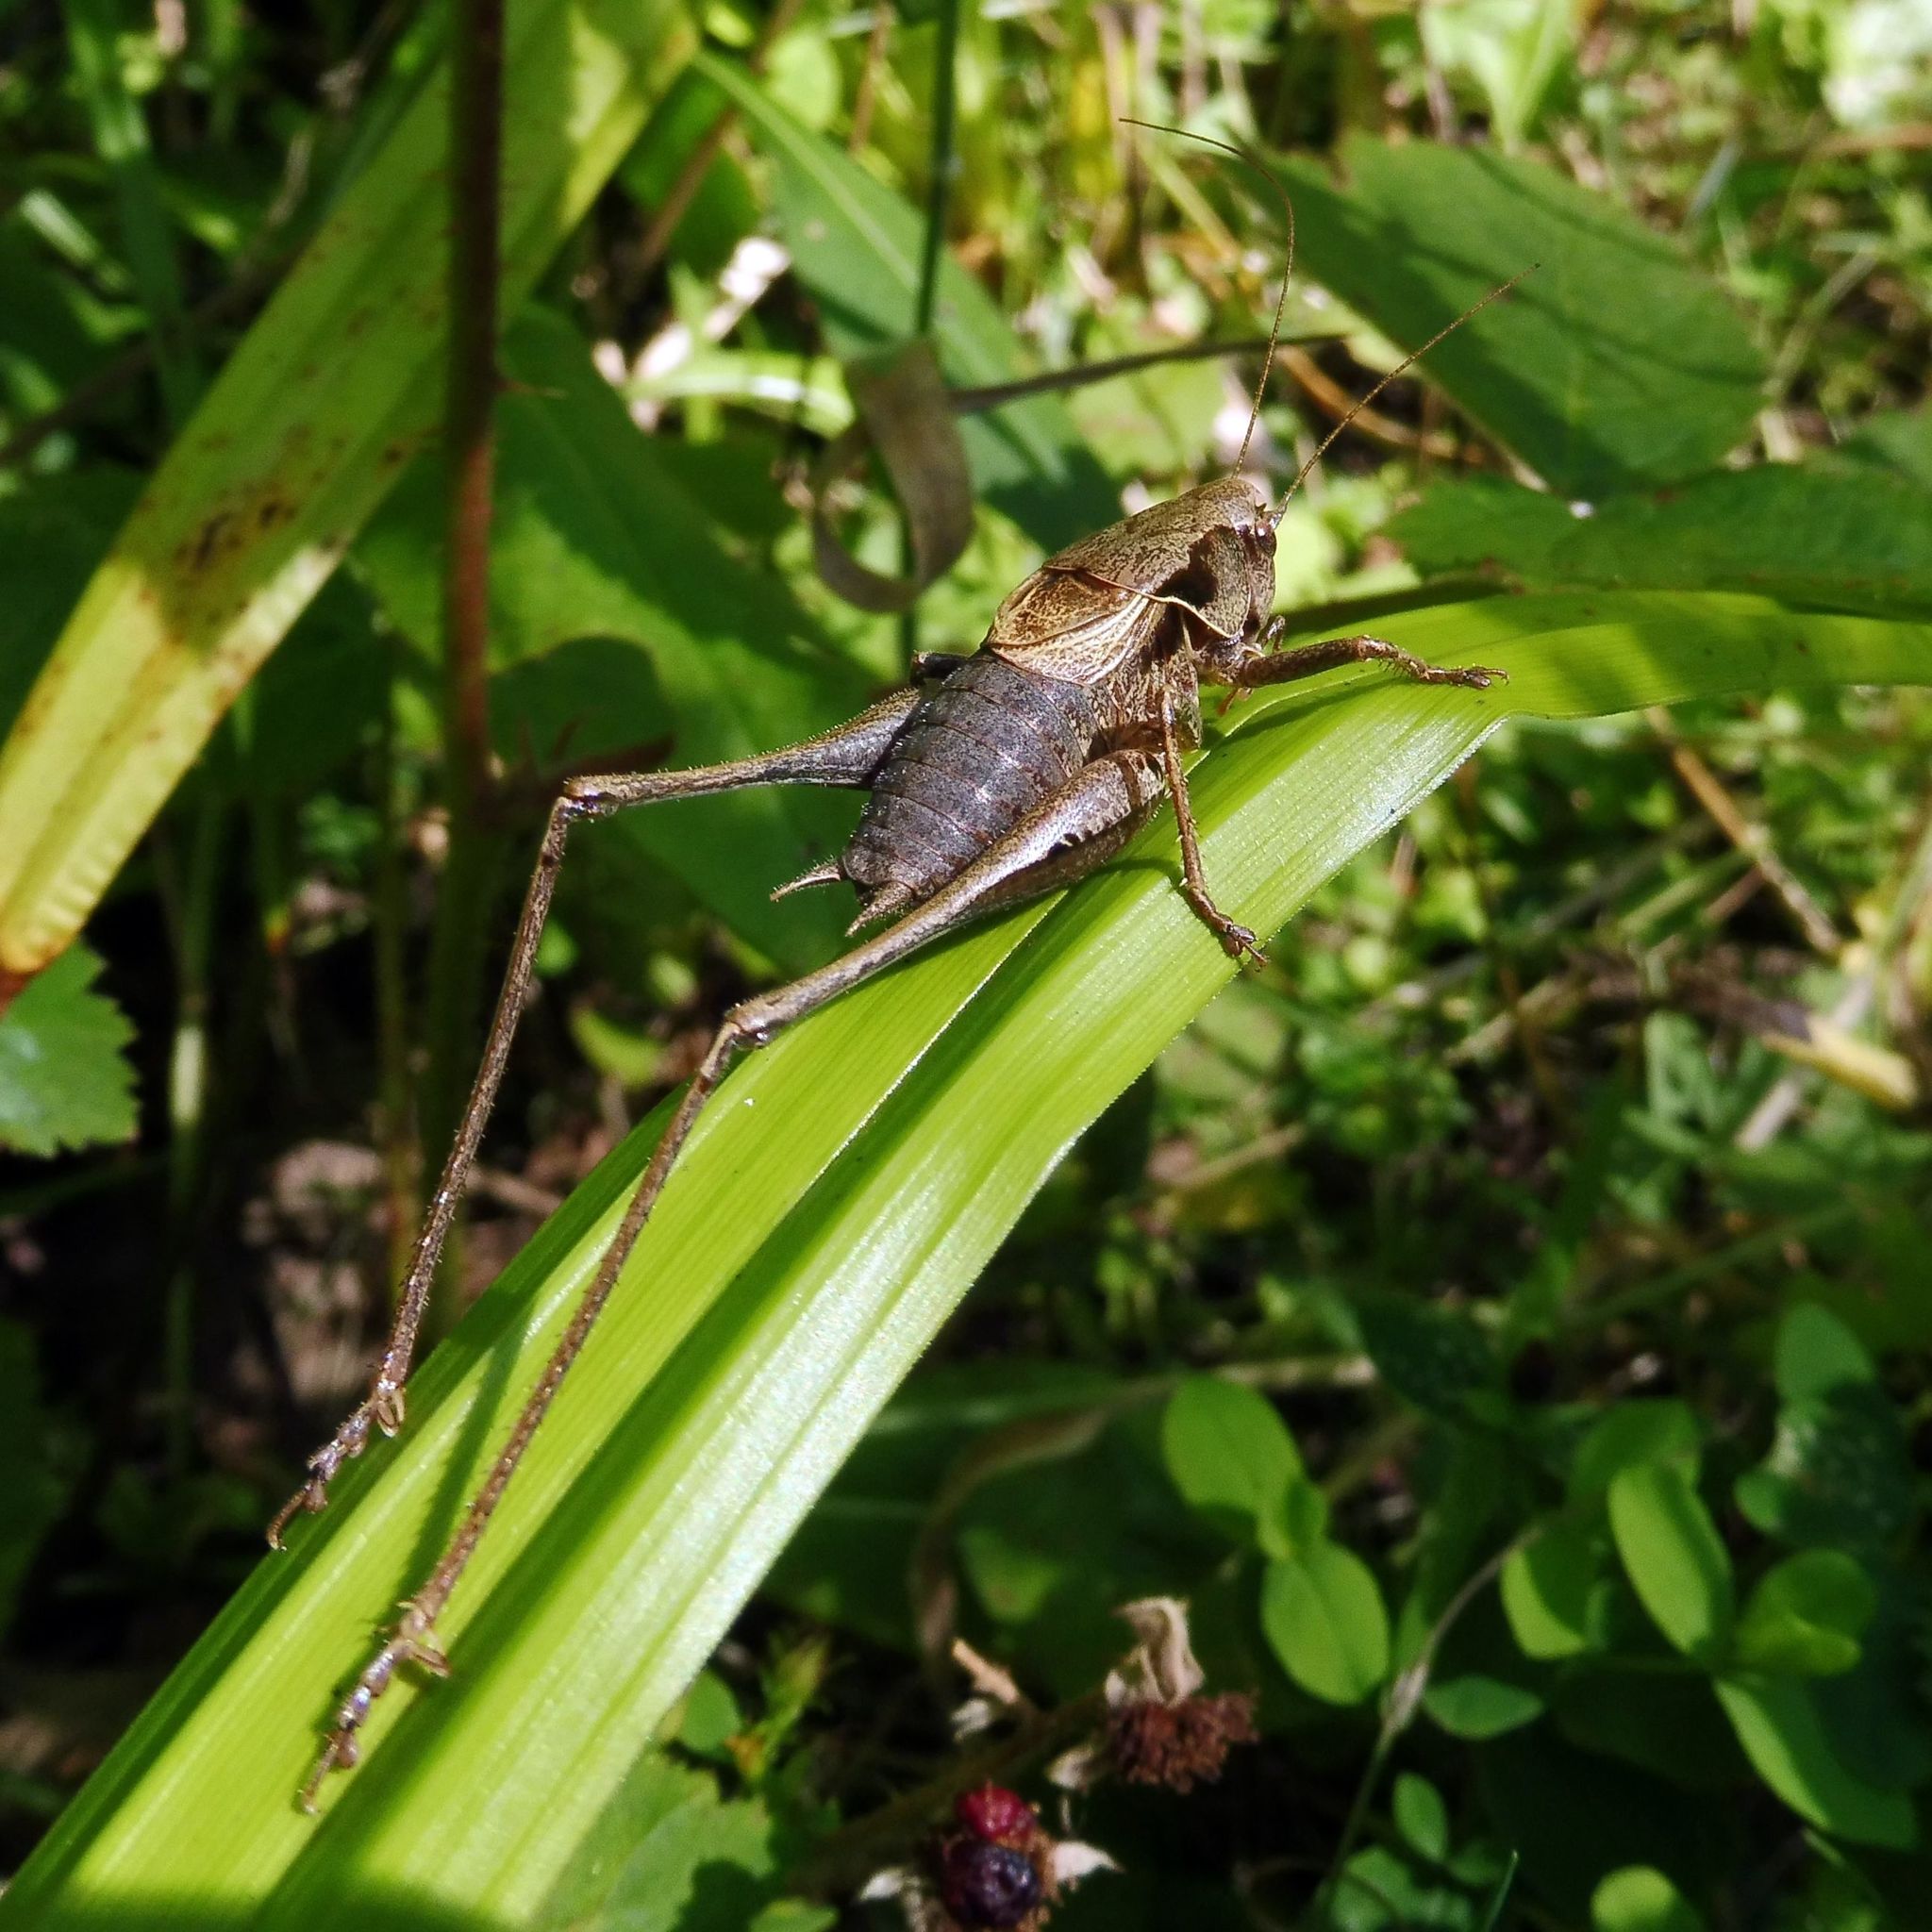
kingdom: Animalia
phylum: Arthropoda
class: Insecta
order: Orthoptera
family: Tettigoniidae
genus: Pholidoptera
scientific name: Pholidoptera griseoaptera
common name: Dark bush-cricket
